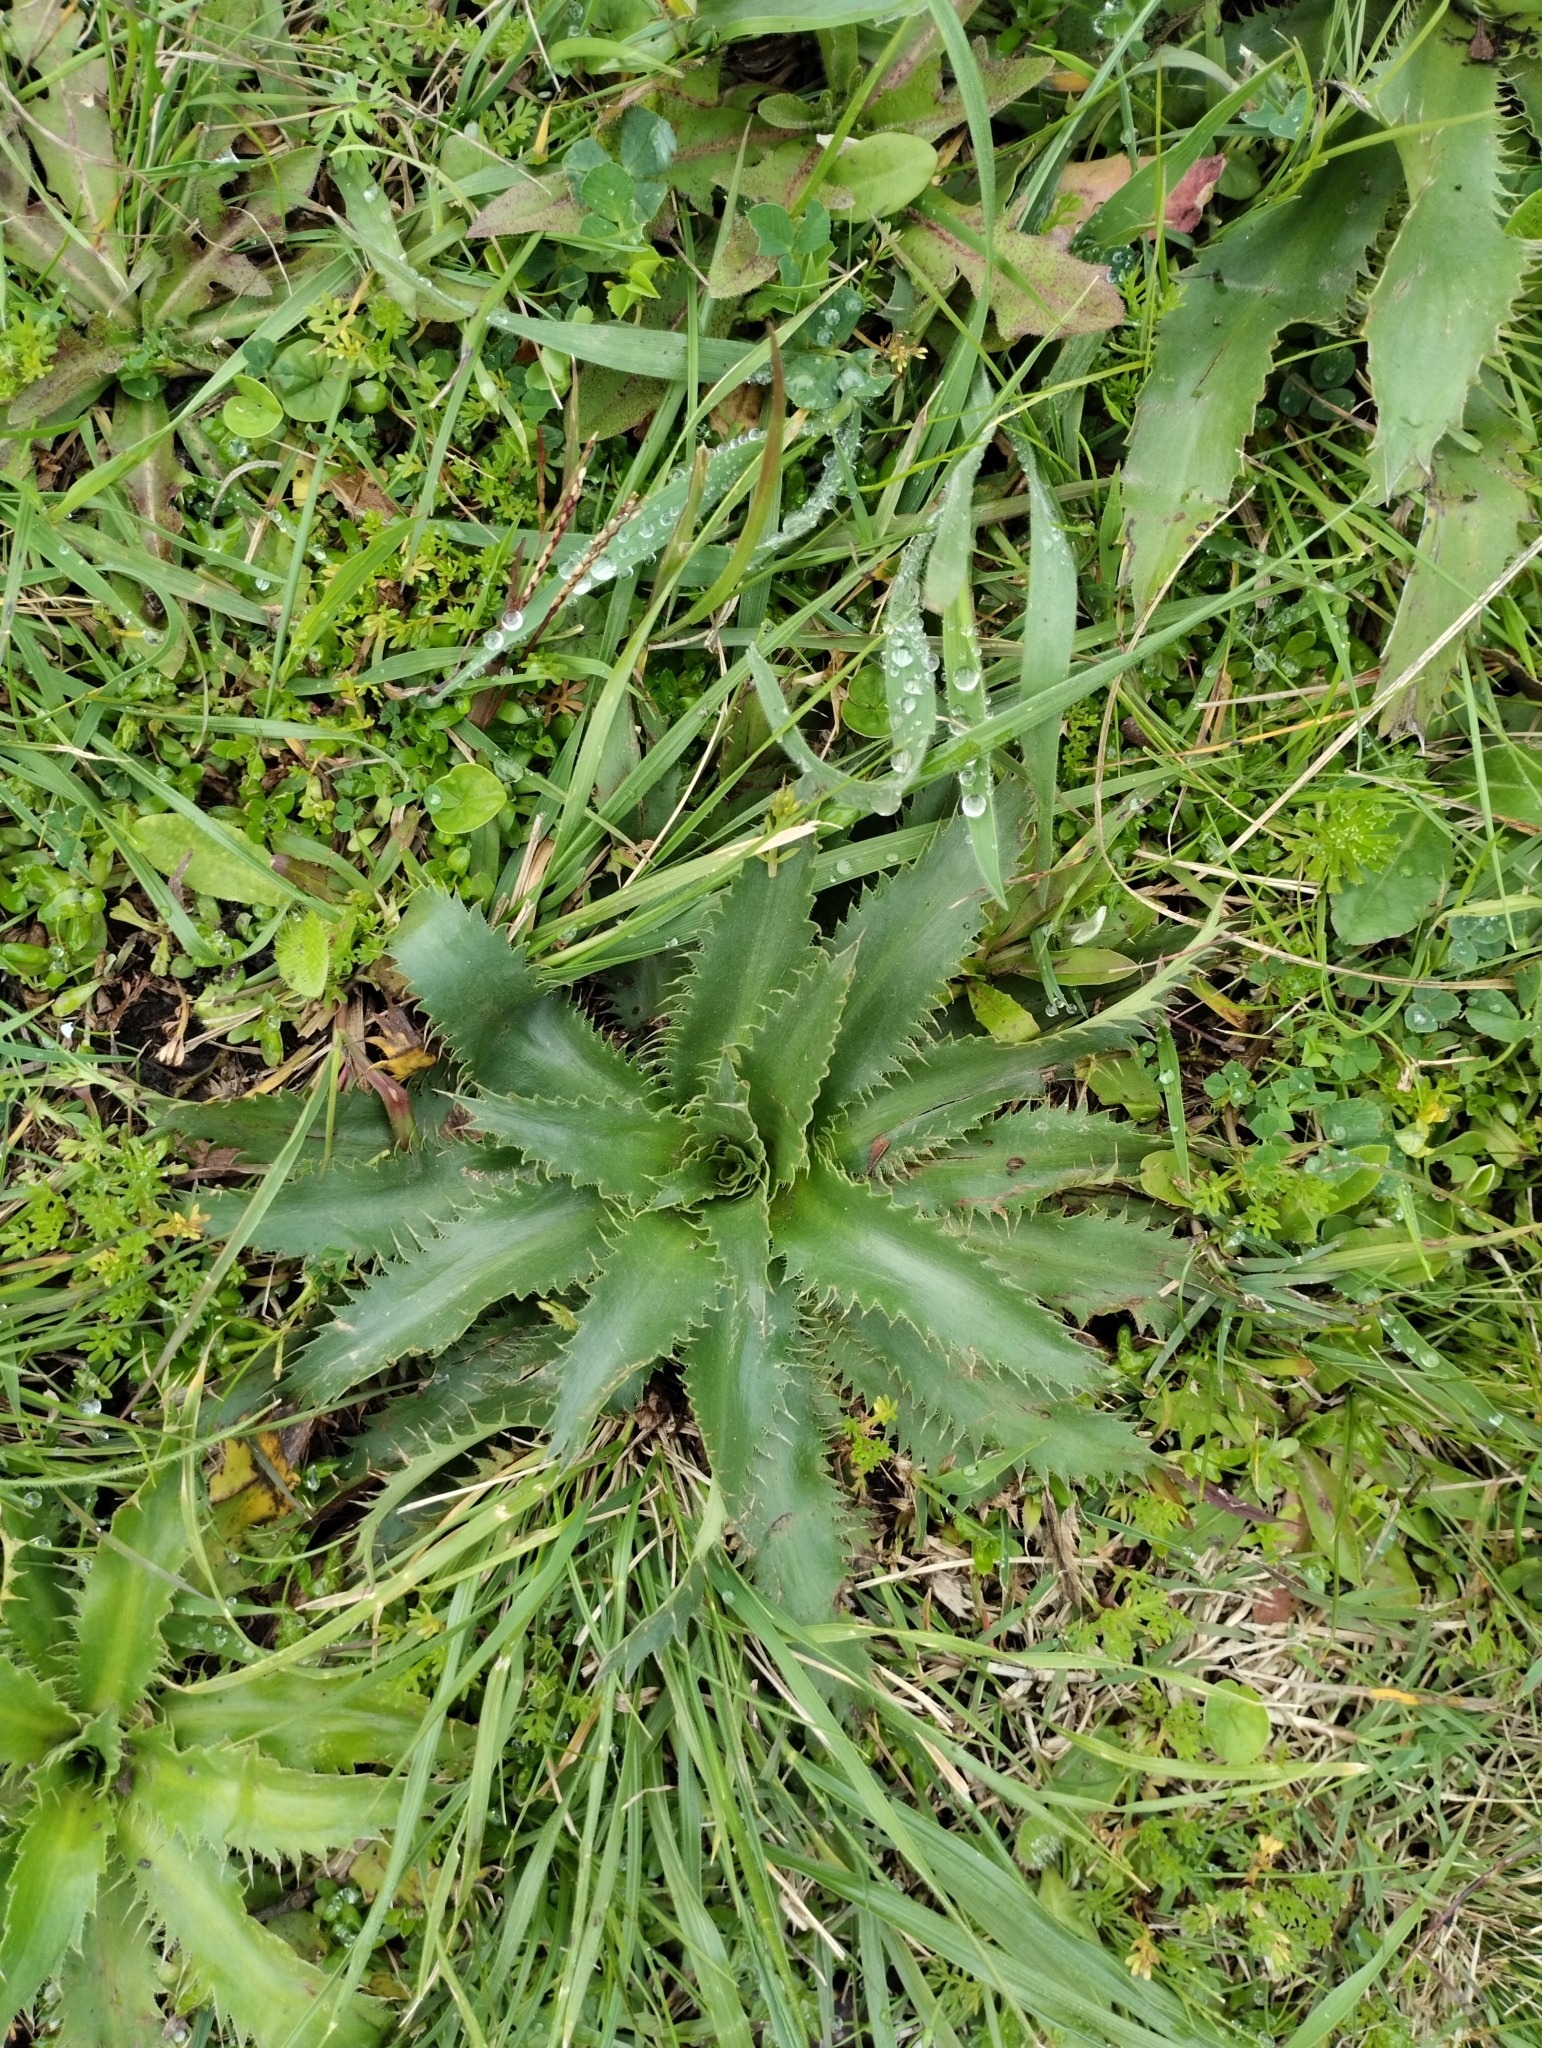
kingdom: Plantae
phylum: Tracheophyta
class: Magnoliopsida
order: Apiales
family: Apiaceae
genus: Eryngium
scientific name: Eryngium elegans
